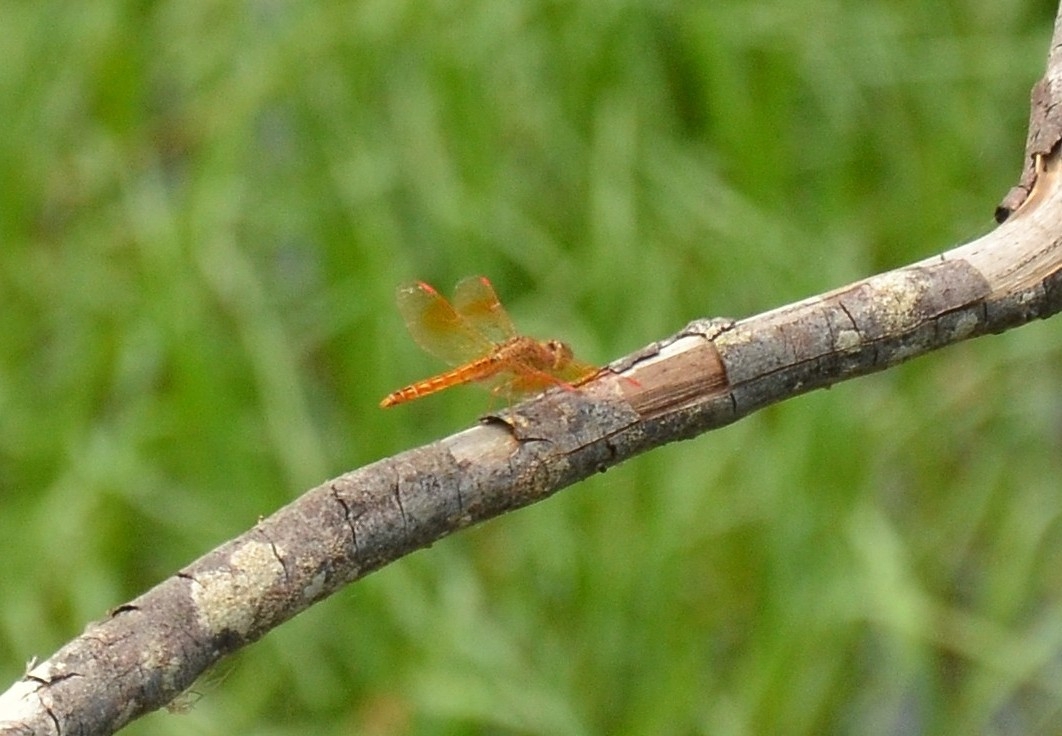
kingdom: Animalia
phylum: Arthropoda
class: Insecta
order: Odonata
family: Libellulidae
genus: Brachythemis
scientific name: Brachythemis contaminata
